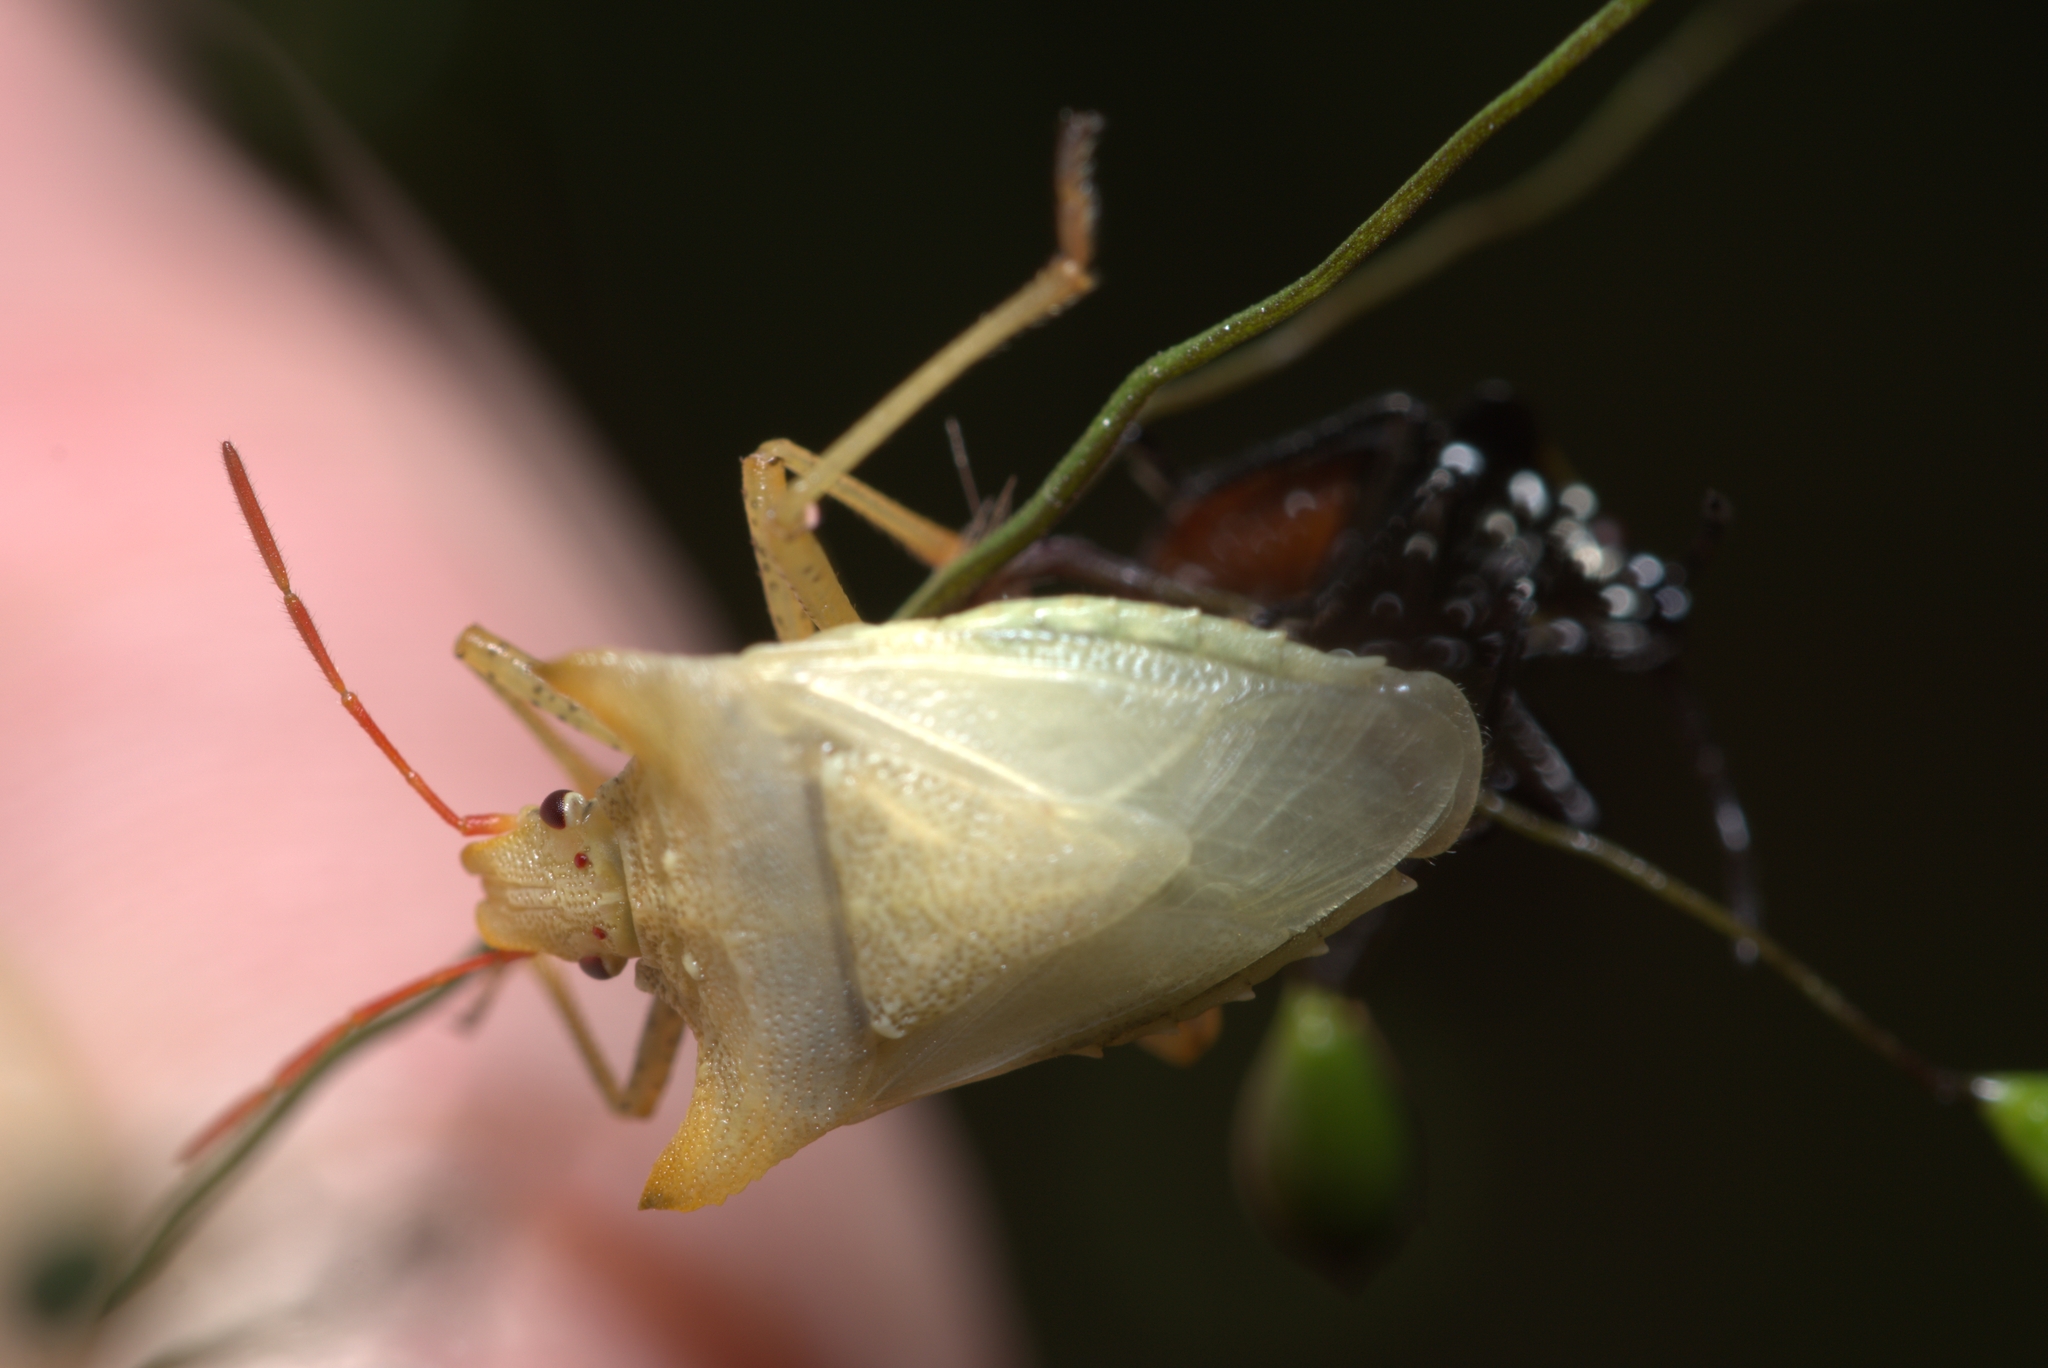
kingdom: Animalia
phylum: Arthropoda
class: Insecta
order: Hemiptera
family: Pentatomidae
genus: Caonabo
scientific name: Caonabo pseudoscylax
